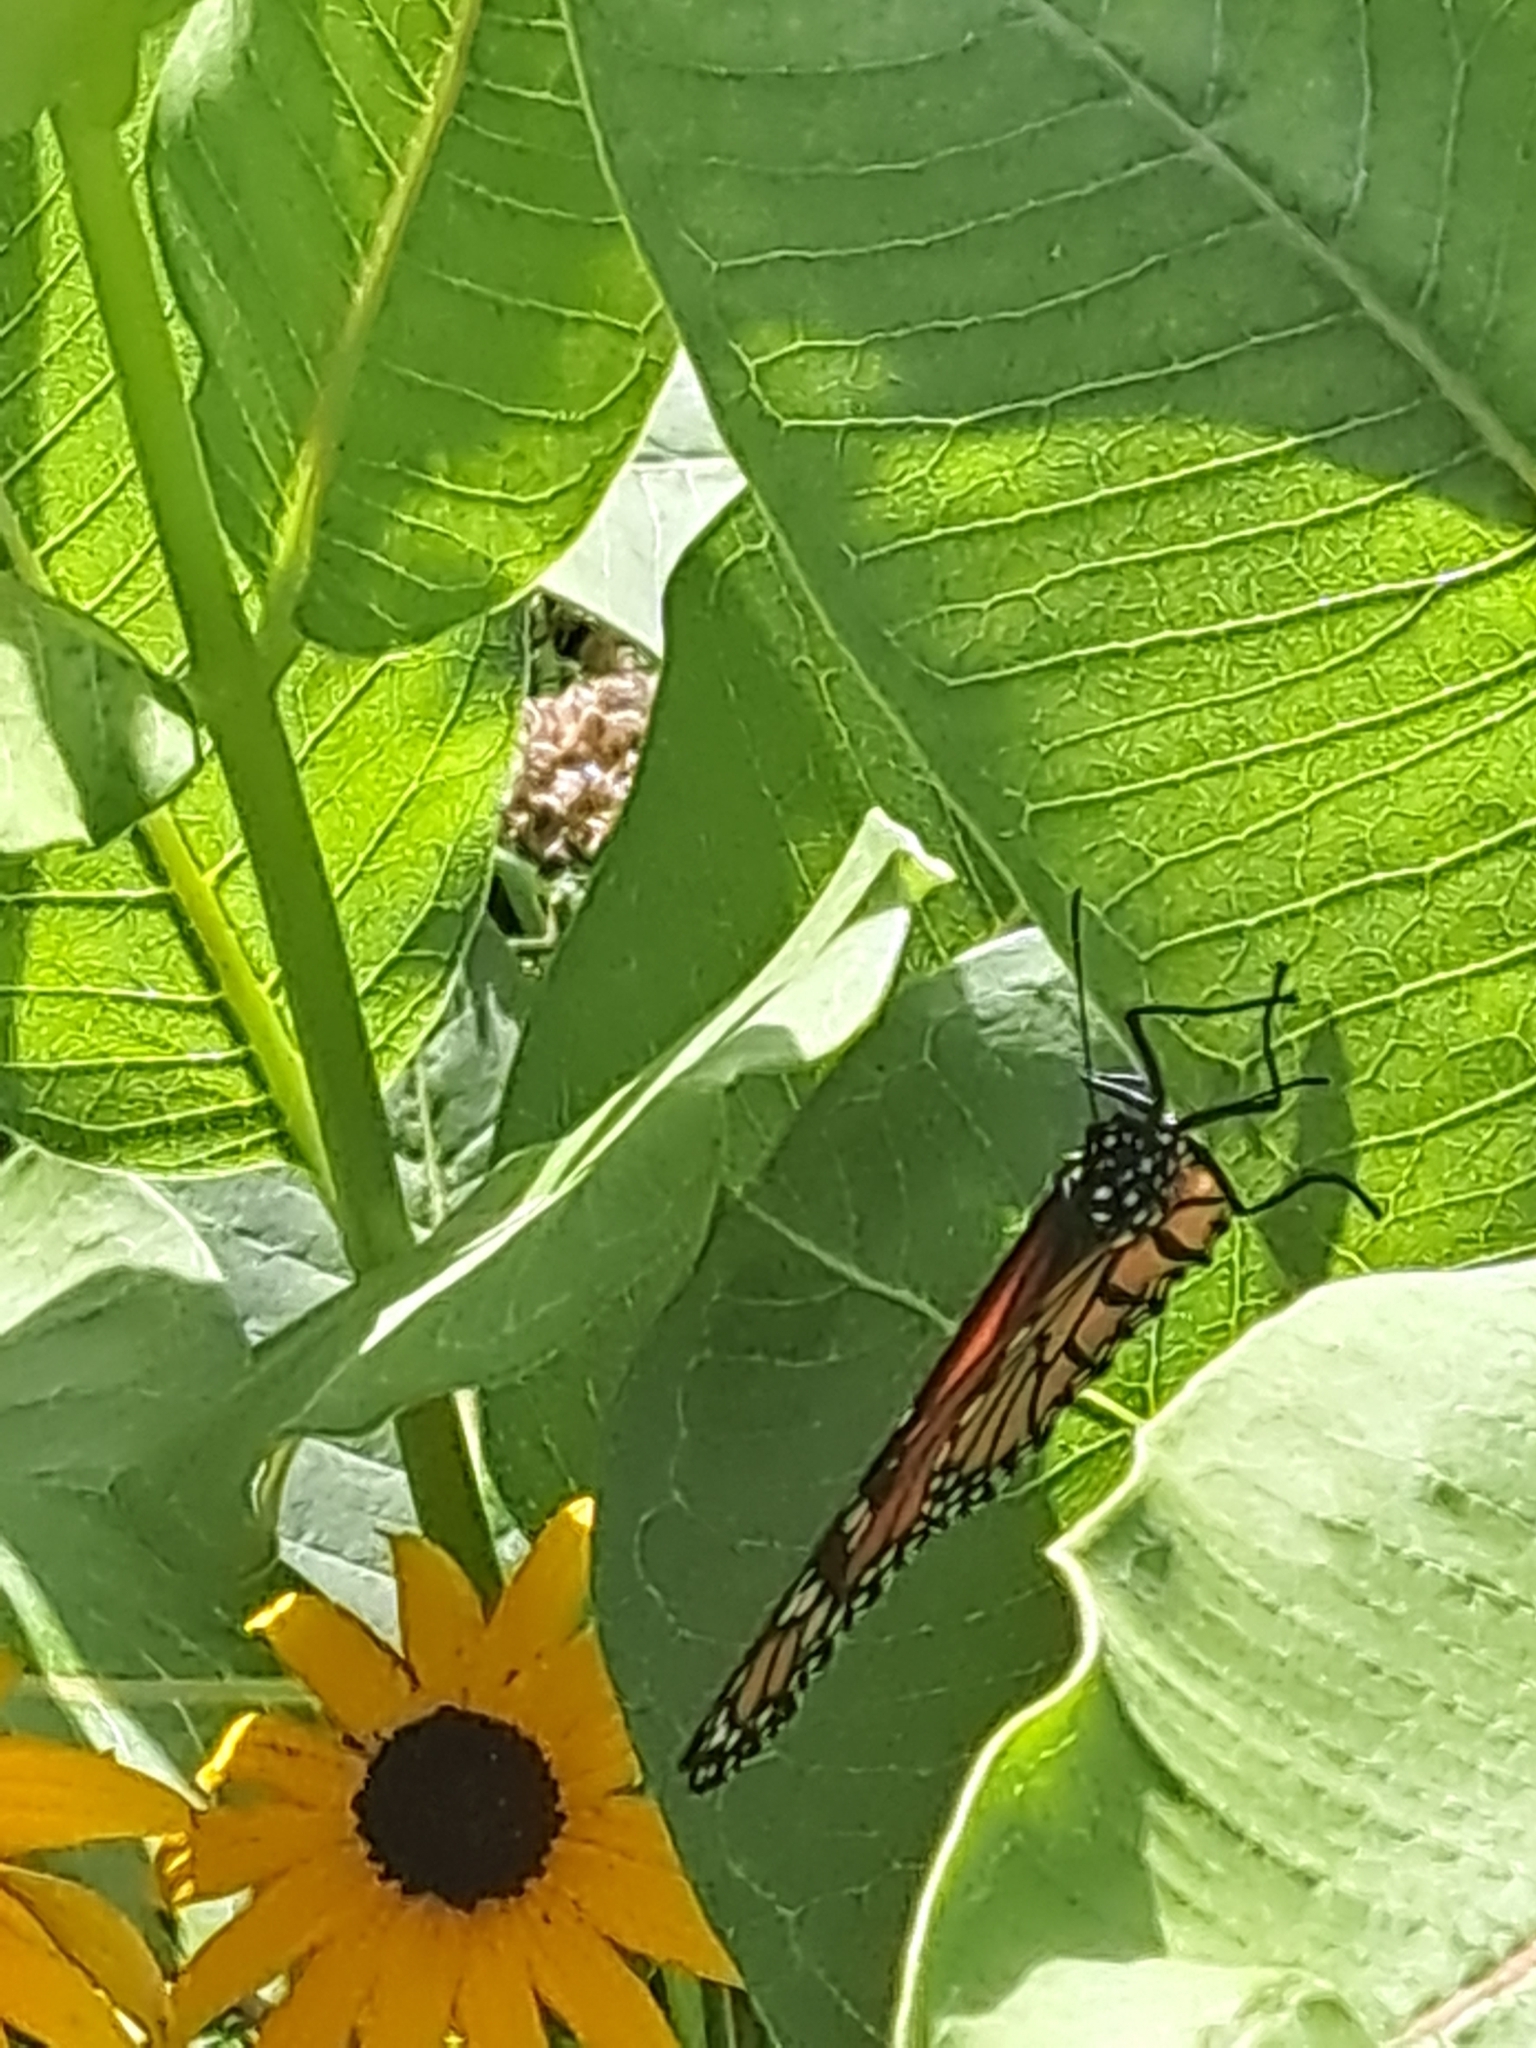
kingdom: Animalia
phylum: Arthropoda
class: Insecta
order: Lepidoptera
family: Nymphalidae
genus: Danaus
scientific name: Danaus plexippus
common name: Monarch
